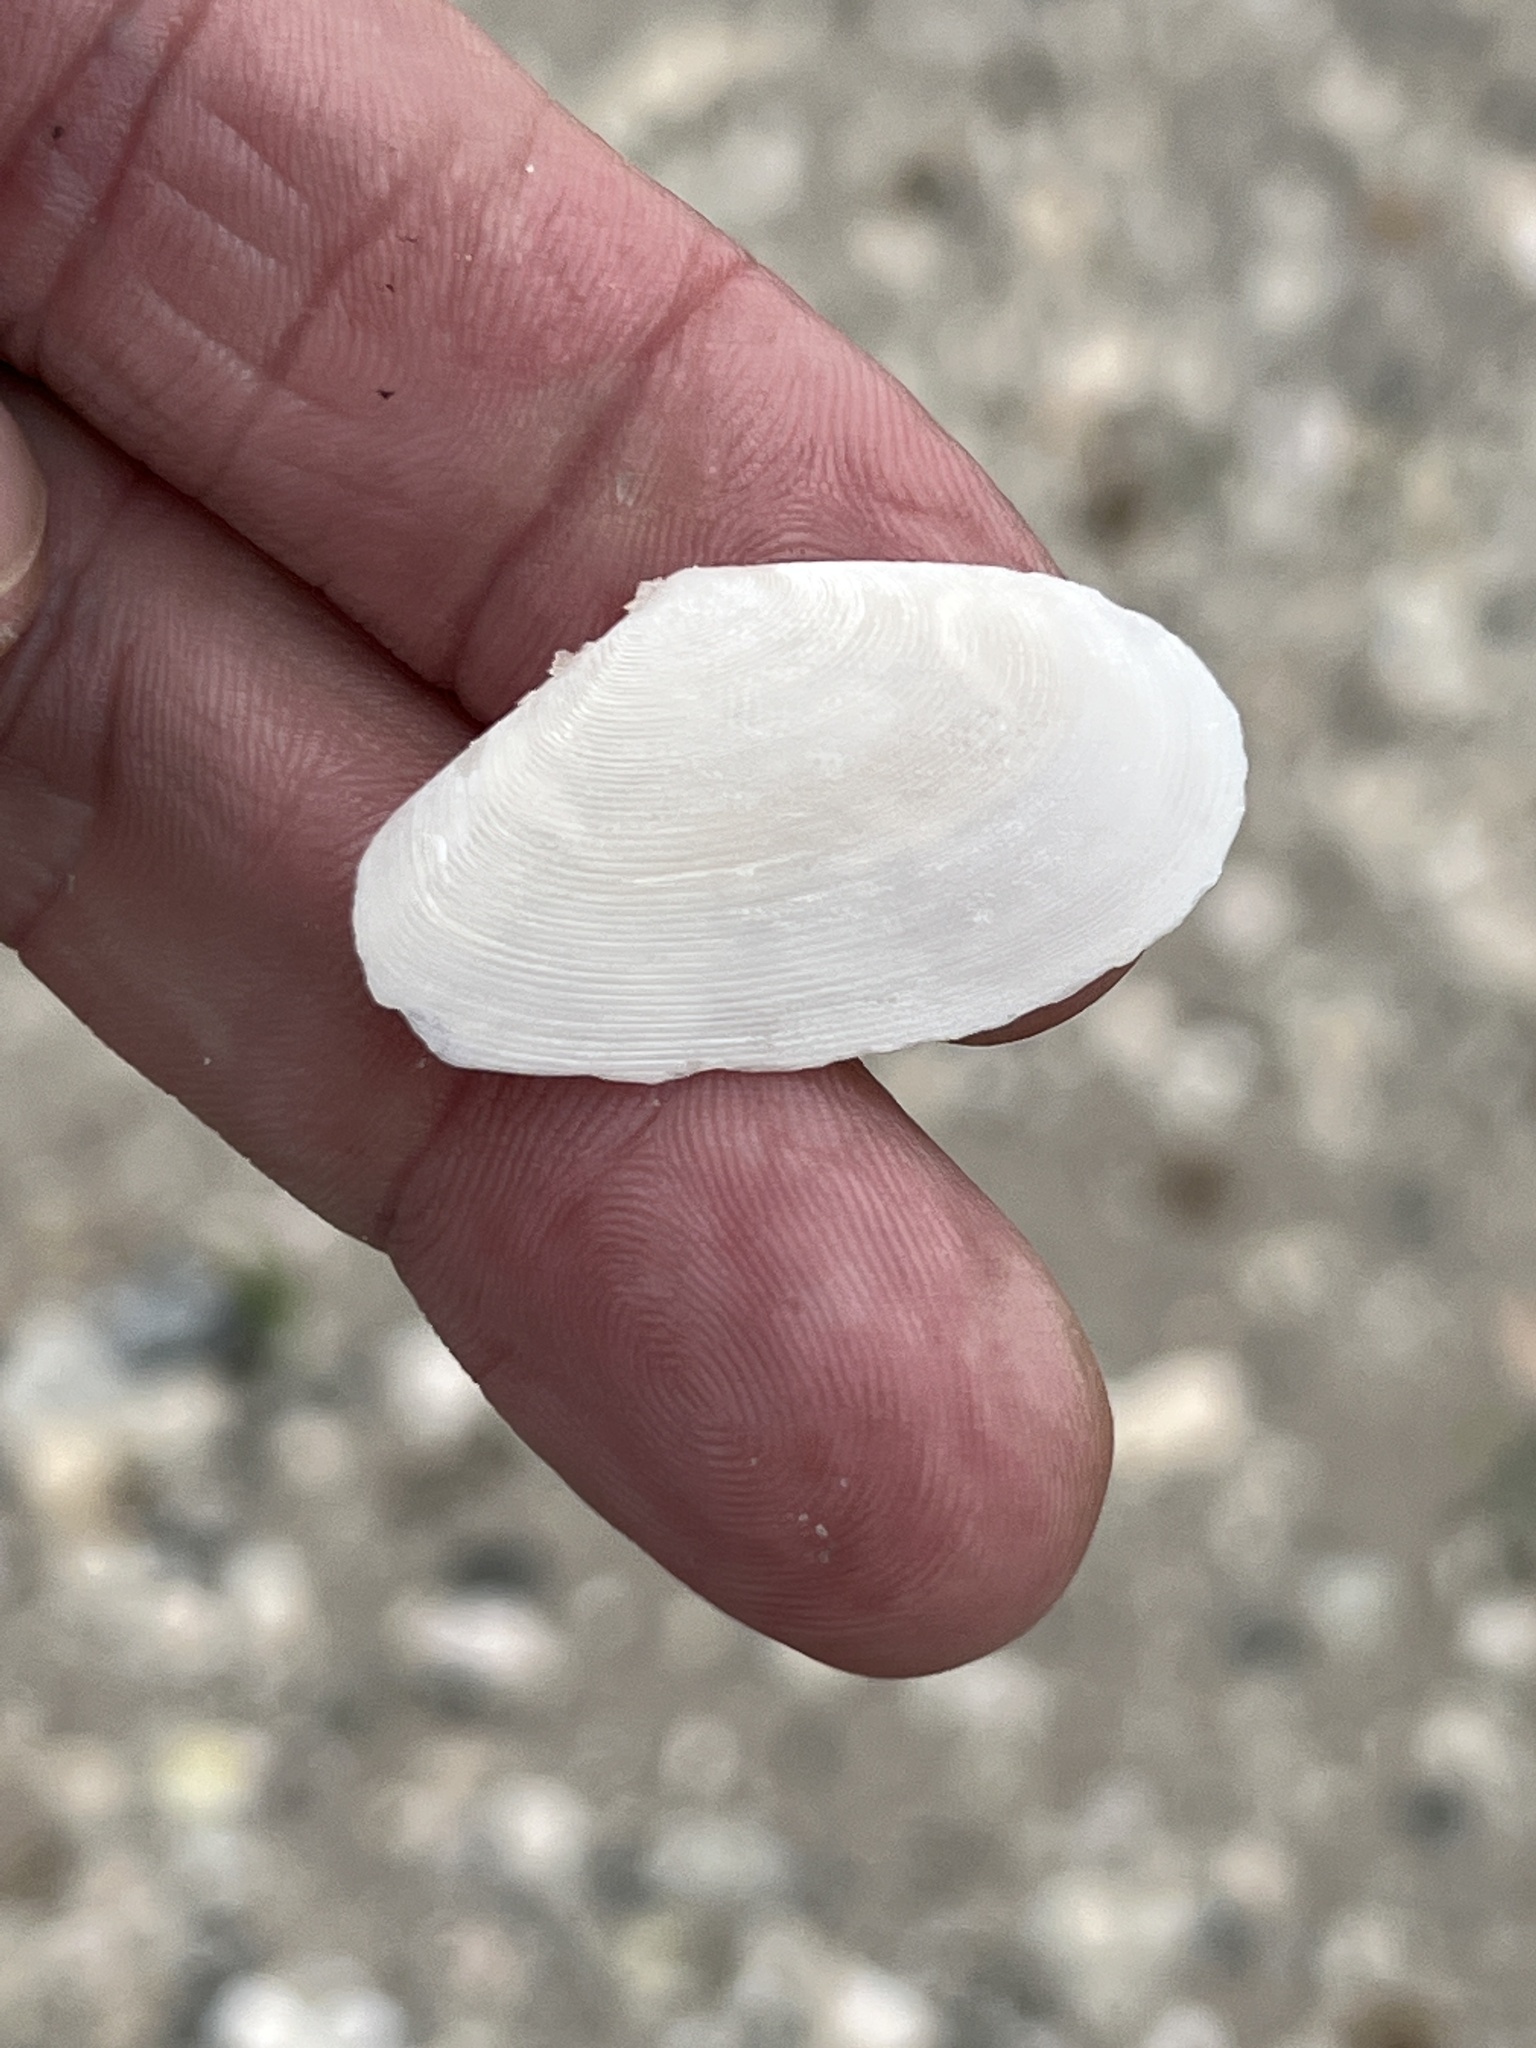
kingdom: Animalia
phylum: Mollusca
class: Bivalvia
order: Cardiida
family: Tellinidae
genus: Eurytellina
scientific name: Eurytellina alternata
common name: Alternate tellin
